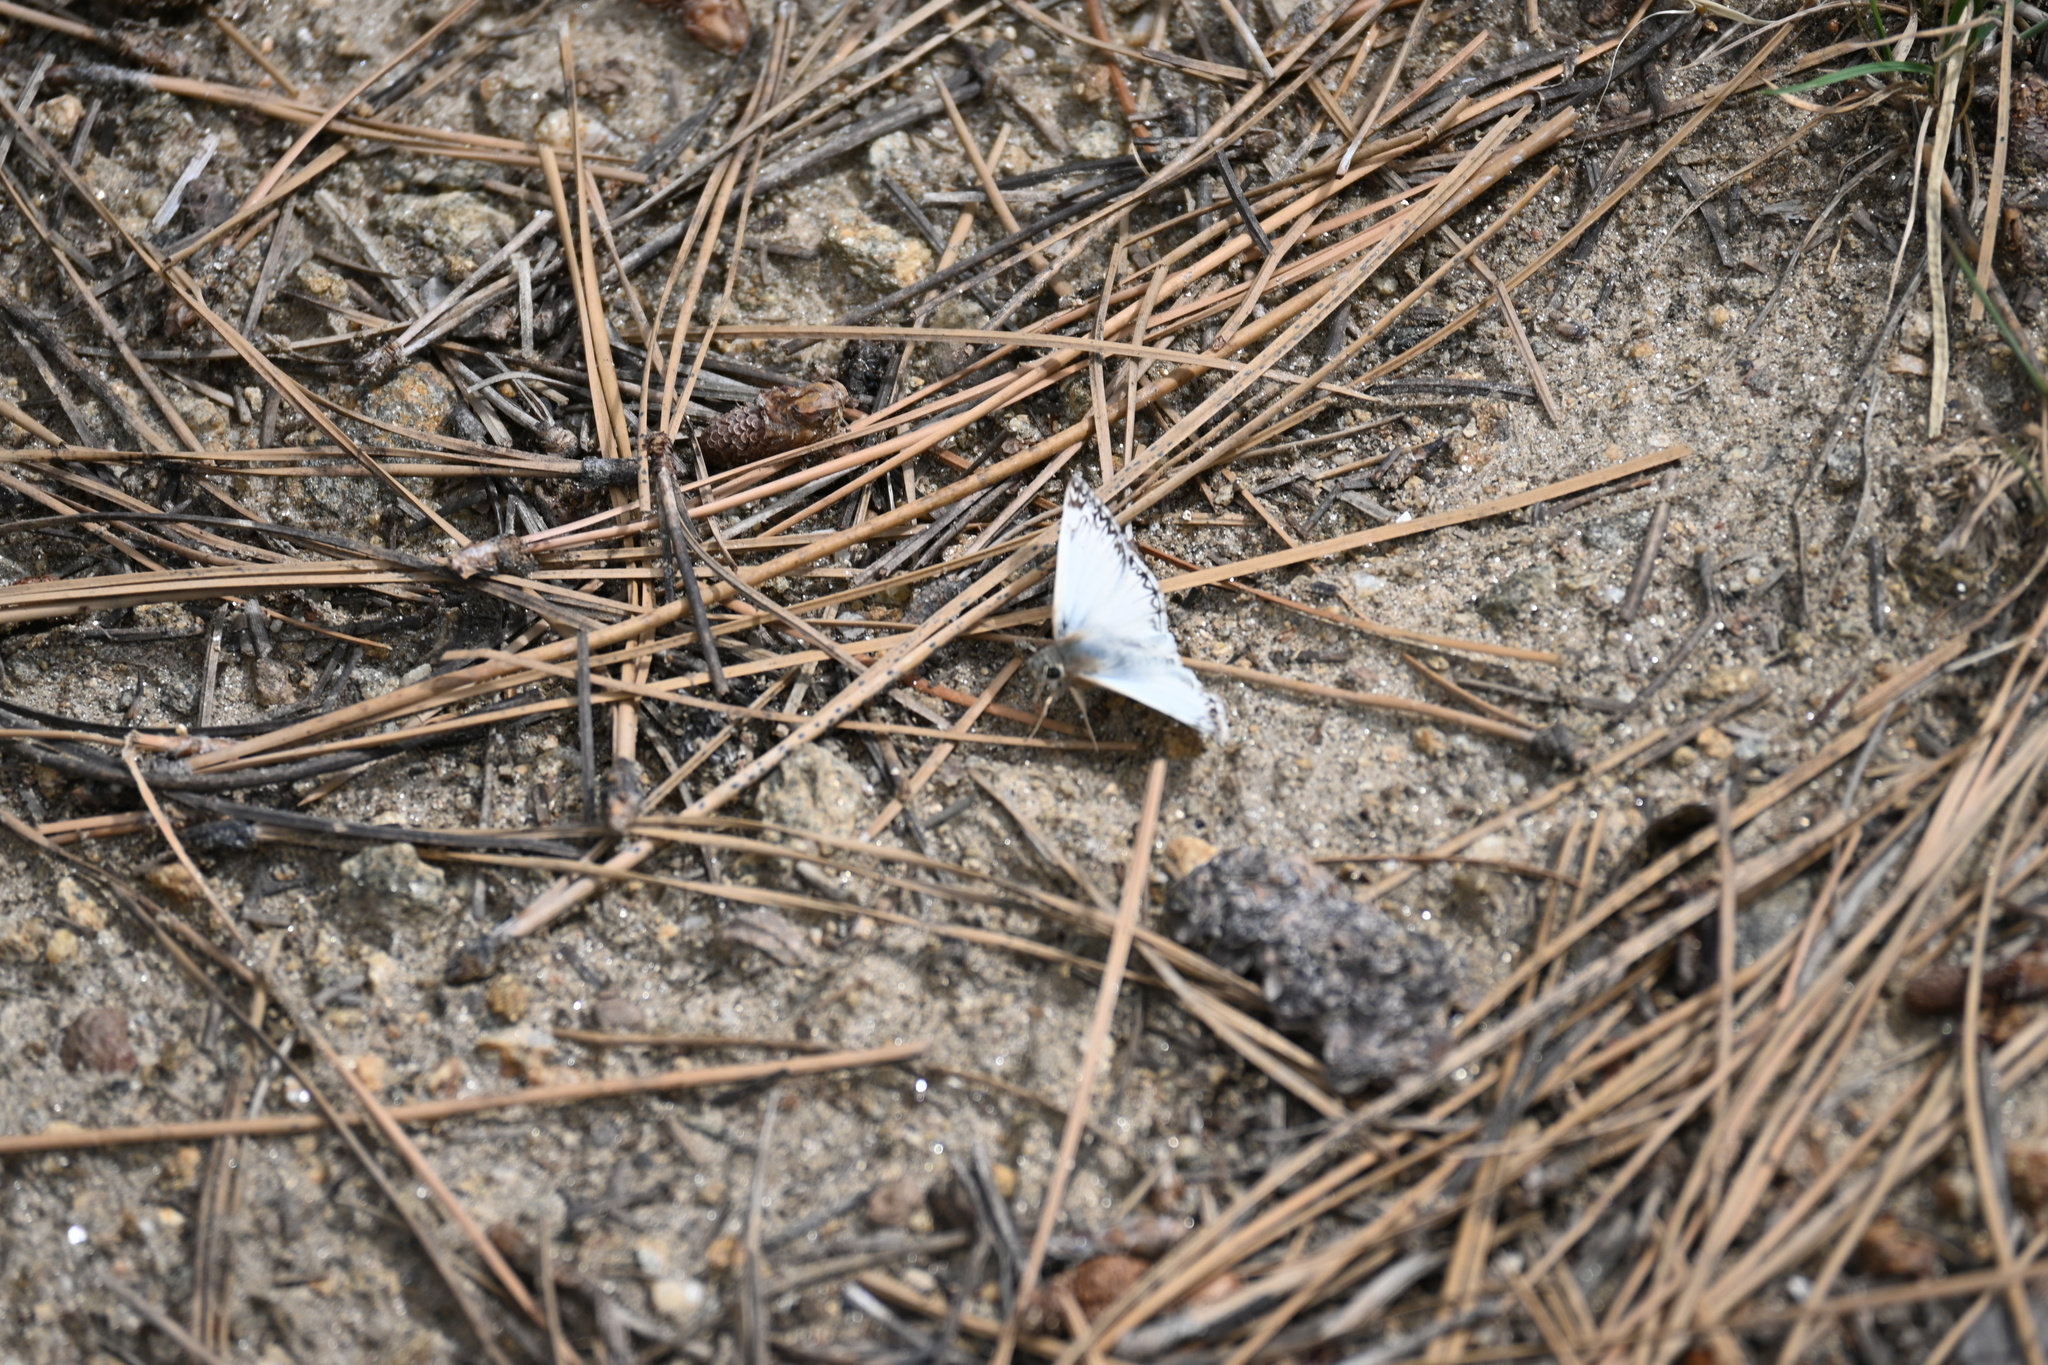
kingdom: Animalia
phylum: Arthropoda
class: Insecta
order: Lepidoptera
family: Hesperiidae
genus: Heliopetes
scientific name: Heliopetes ericetorum
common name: Northern white-skipper
